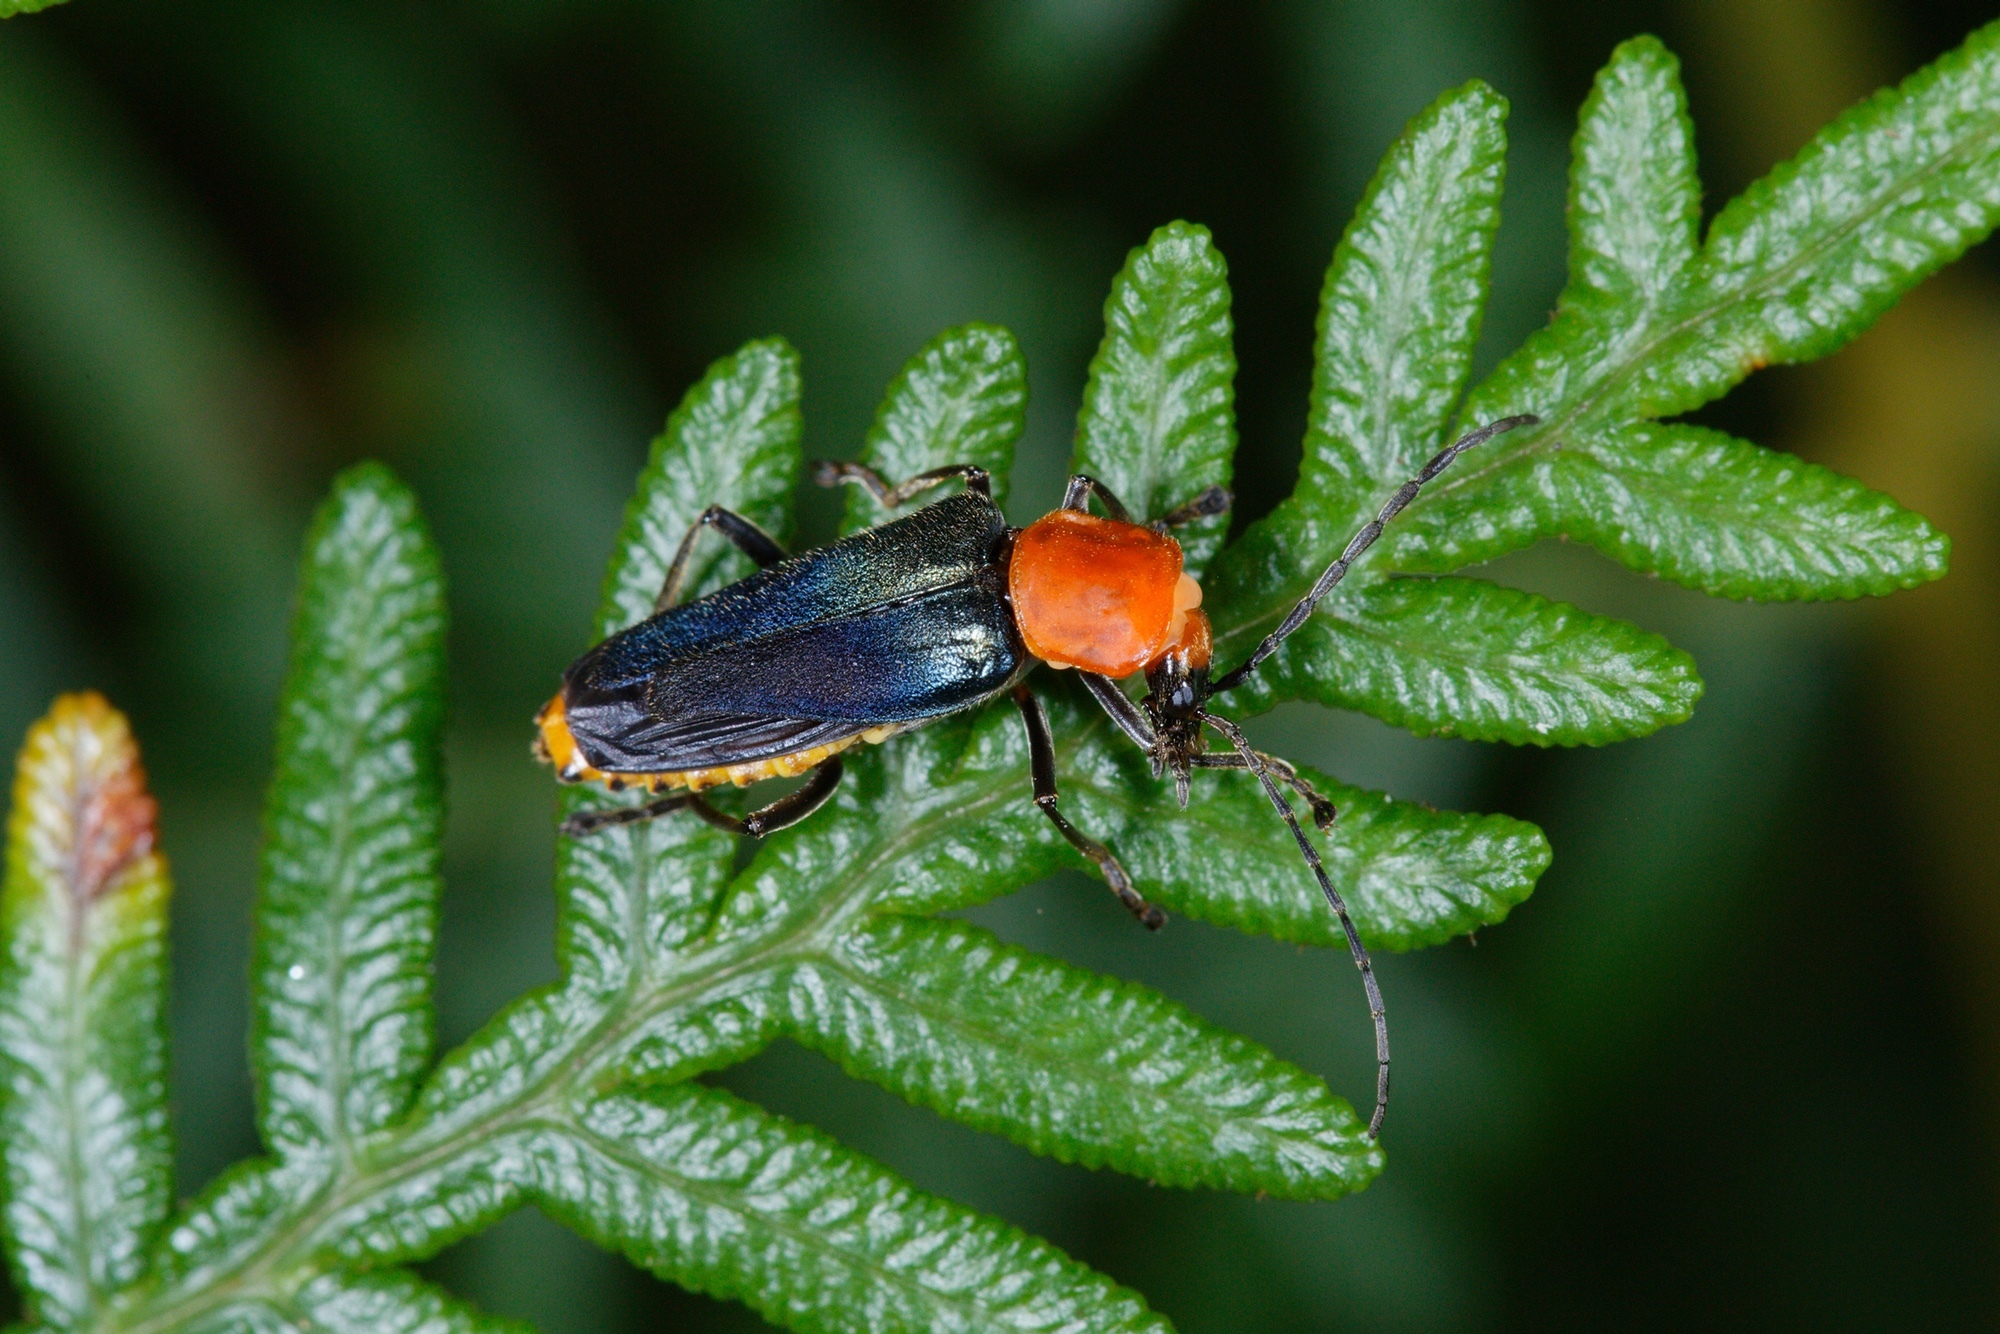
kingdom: Animalia
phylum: Arthropoda
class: Insecta
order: Coleoptera
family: Cantharidae
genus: Chauliognathus
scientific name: Chauliognathus
